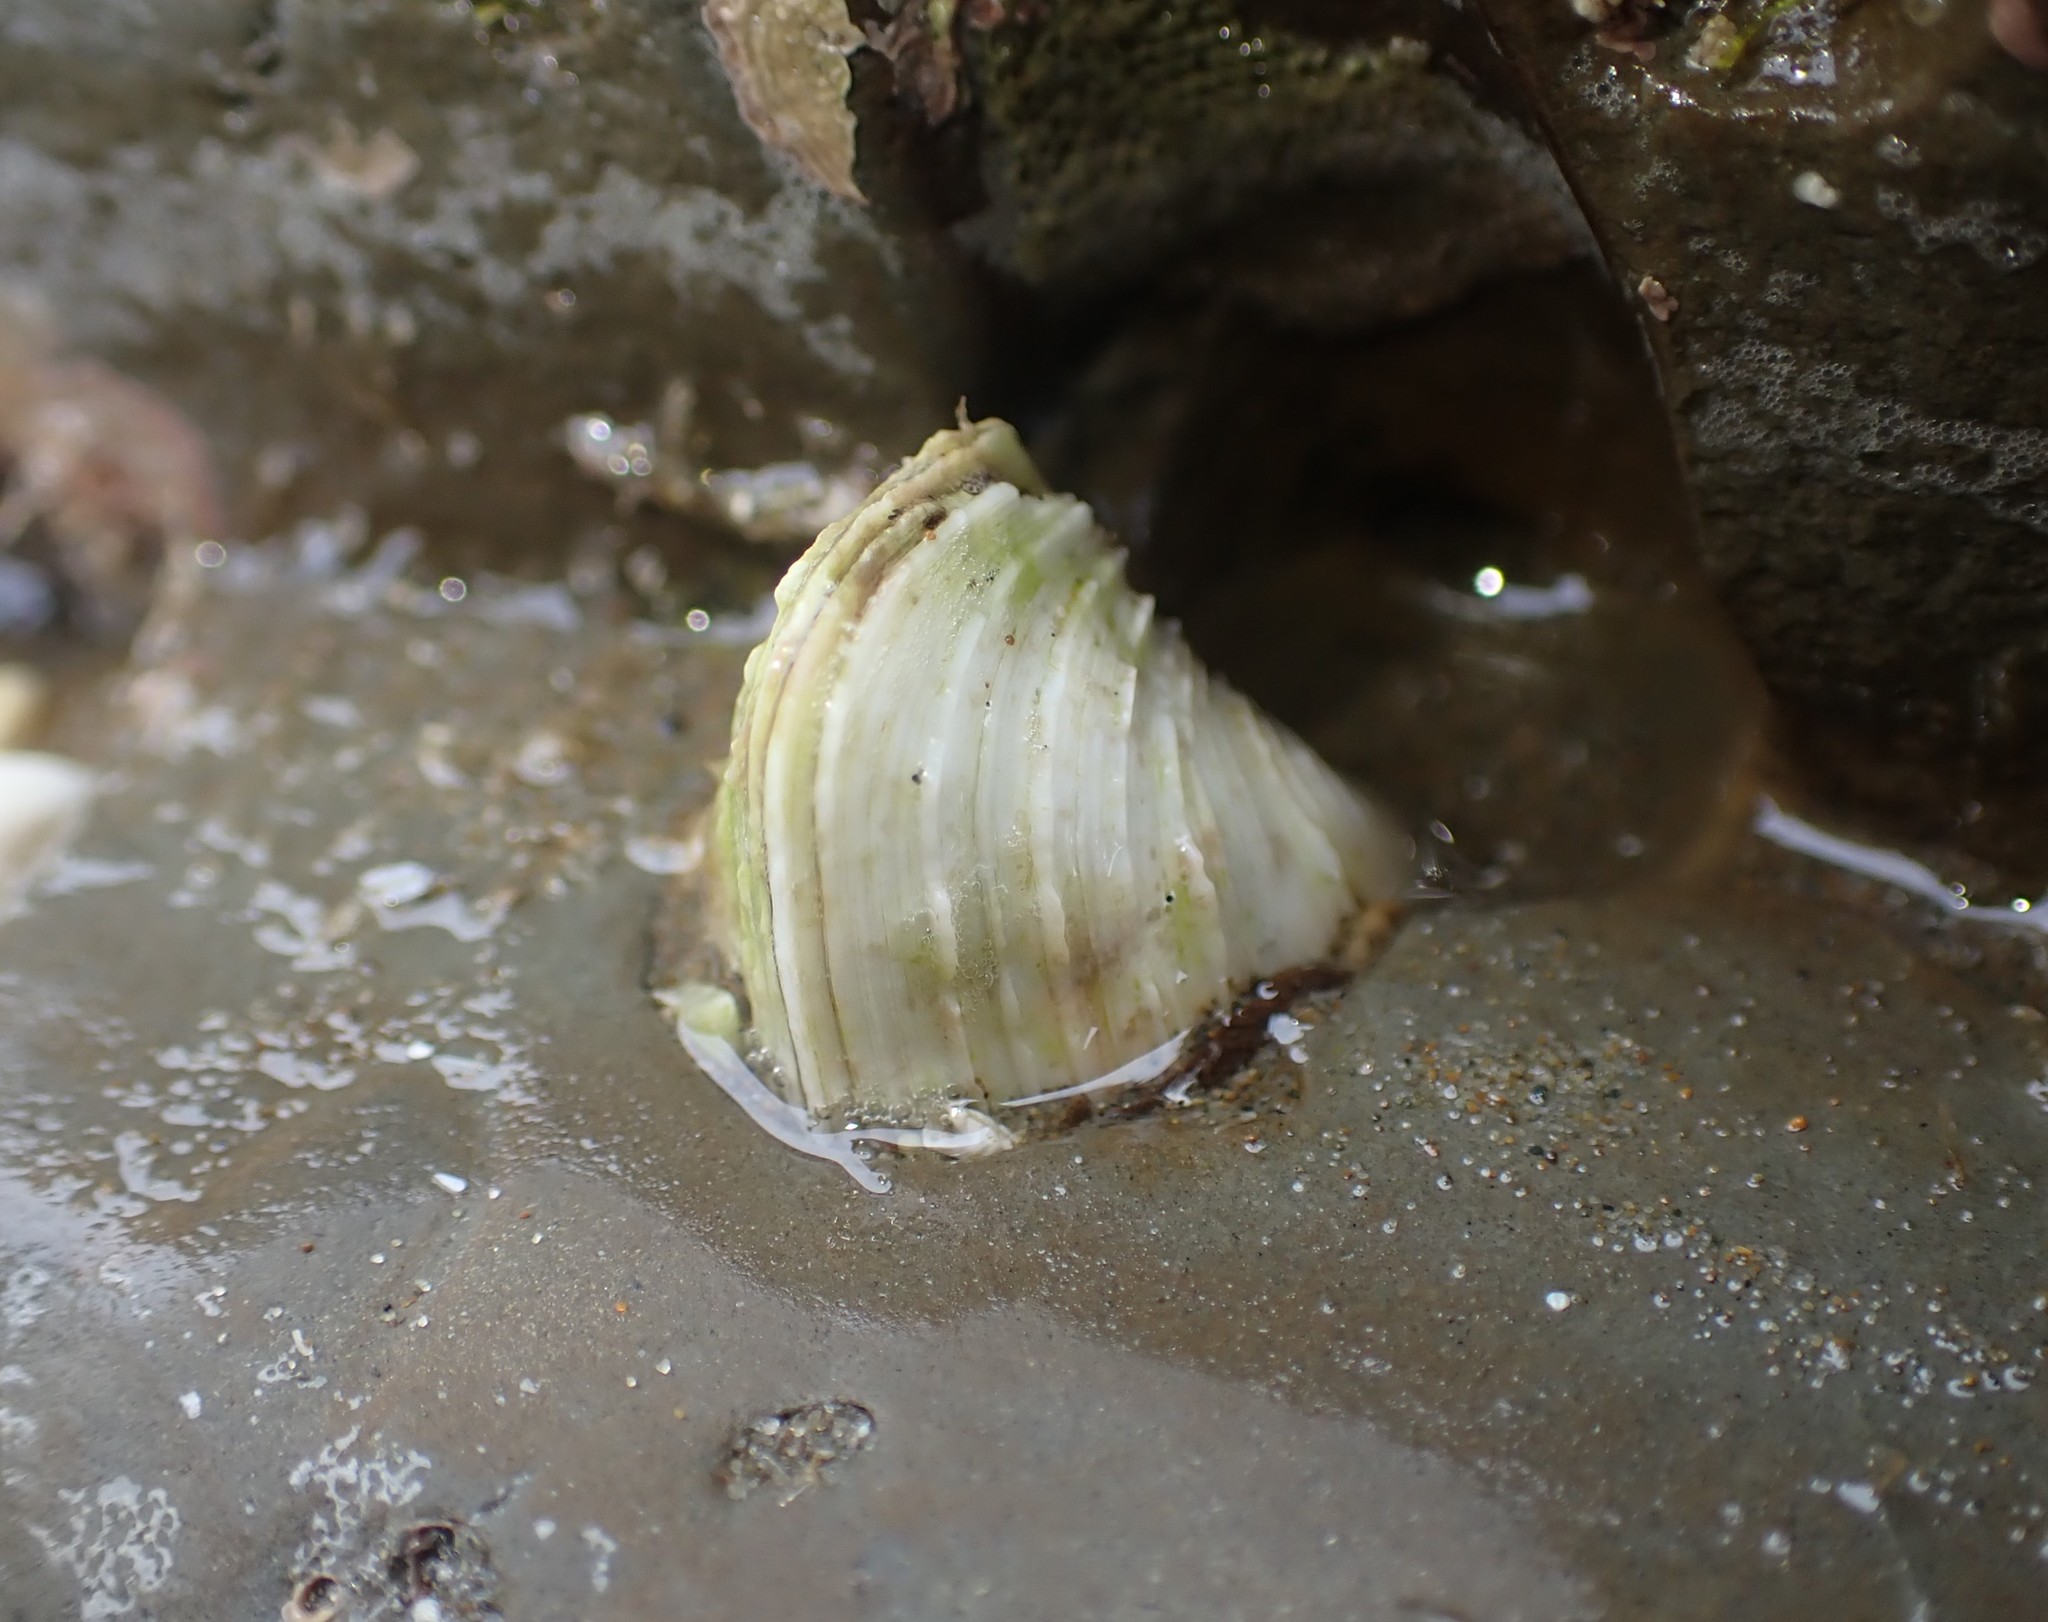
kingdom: Animalia
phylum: Mollusca
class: Bivalvia
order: Venerida
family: Veneridae
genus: Irus
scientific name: Irus elegans
